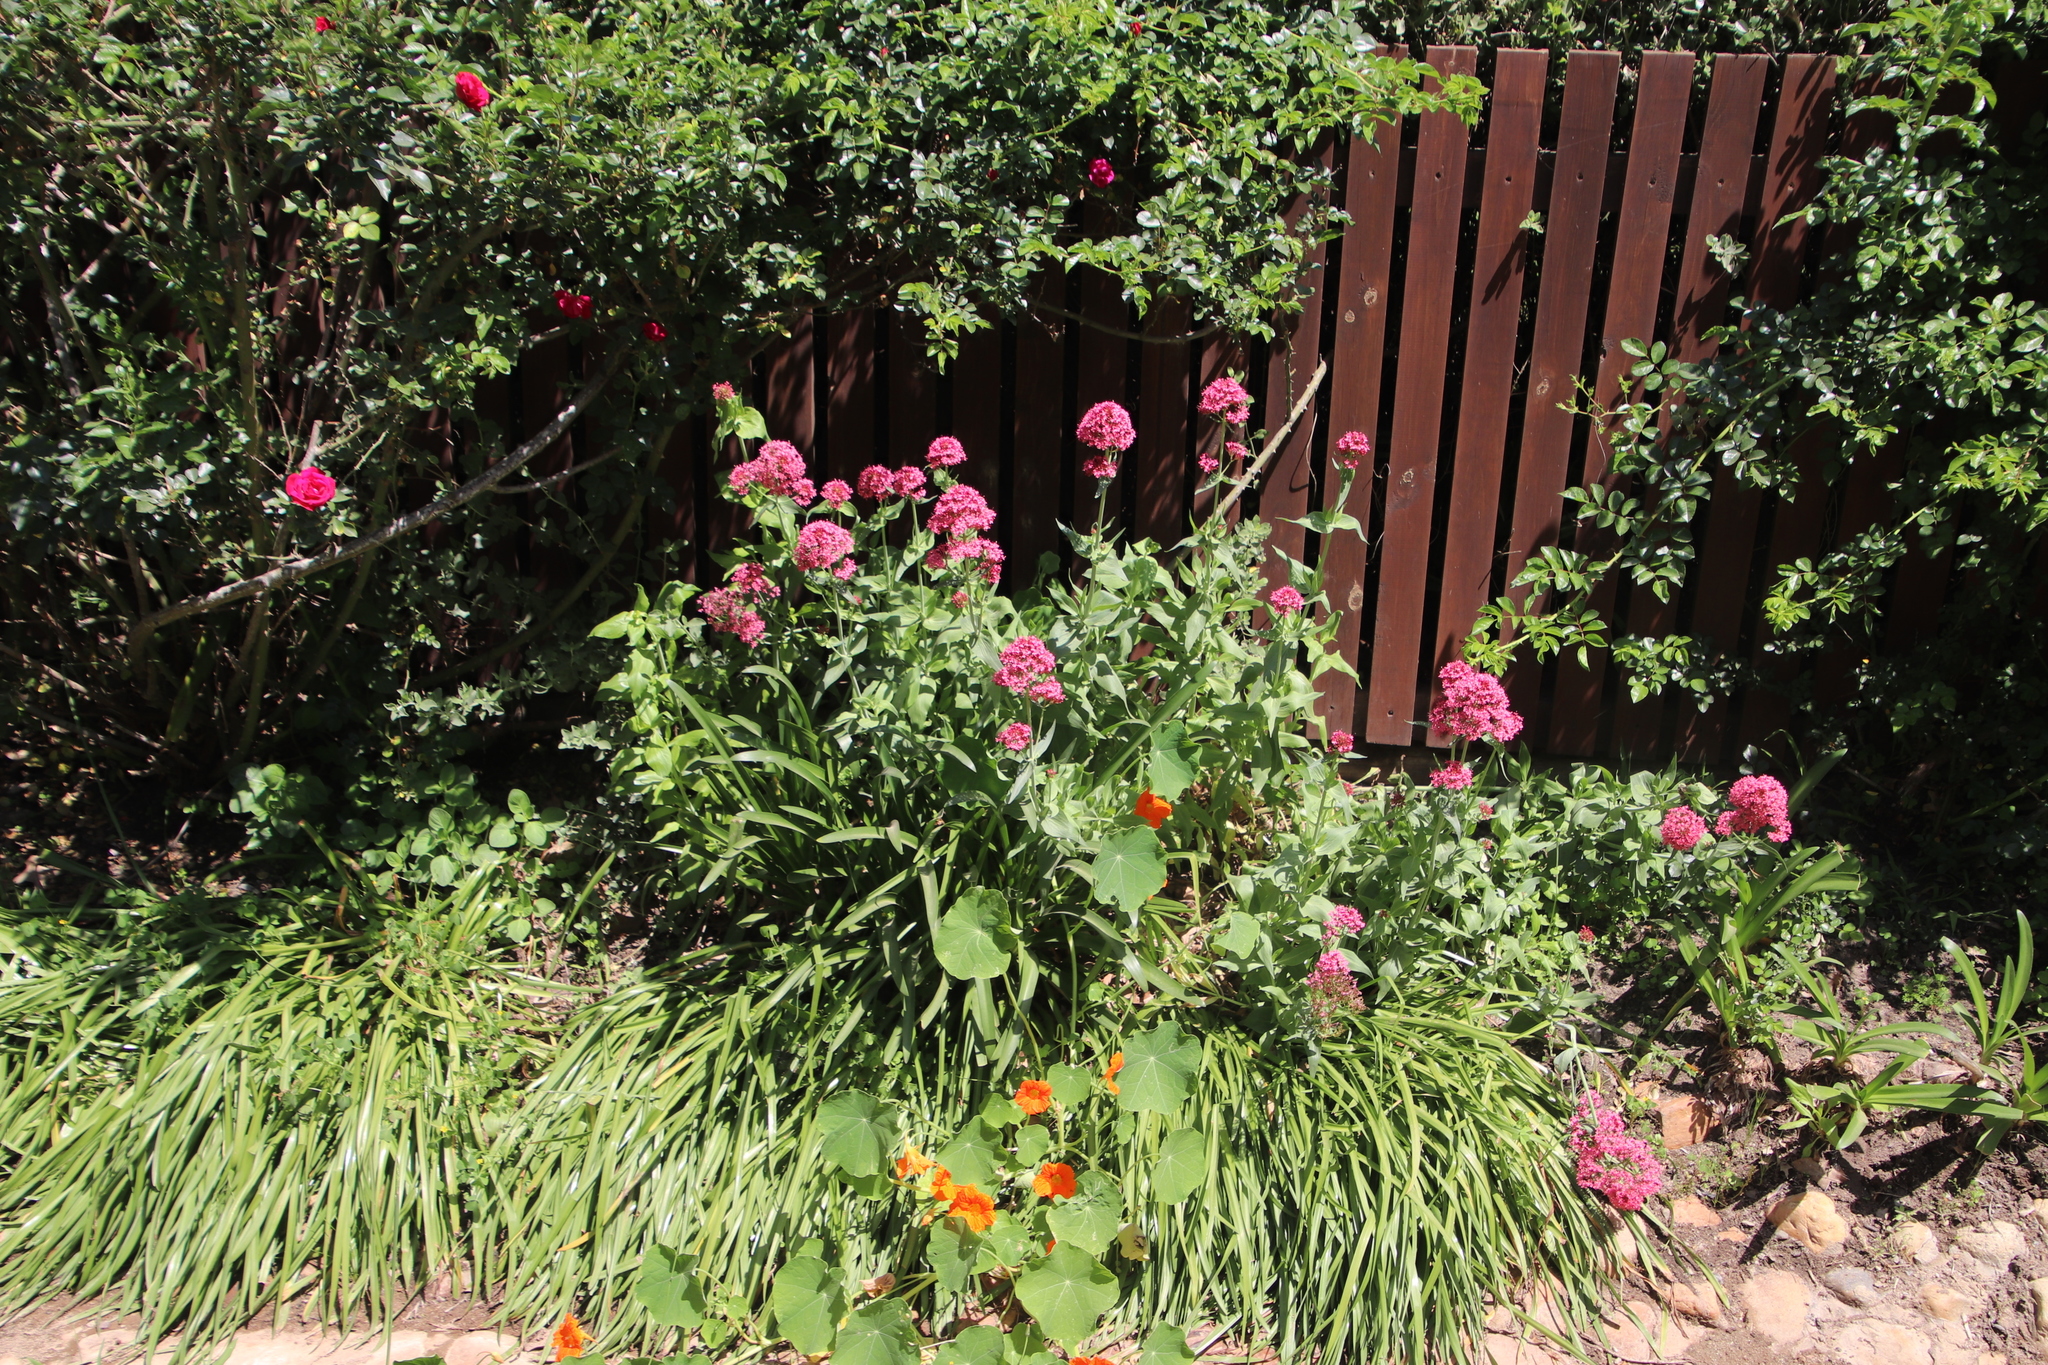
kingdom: Plantae
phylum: Tracheophyta
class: Magnoliopsida
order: Dipsacales
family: Caprifoliaceae
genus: Centranthus
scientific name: Centranthus ruber
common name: Red valerian
